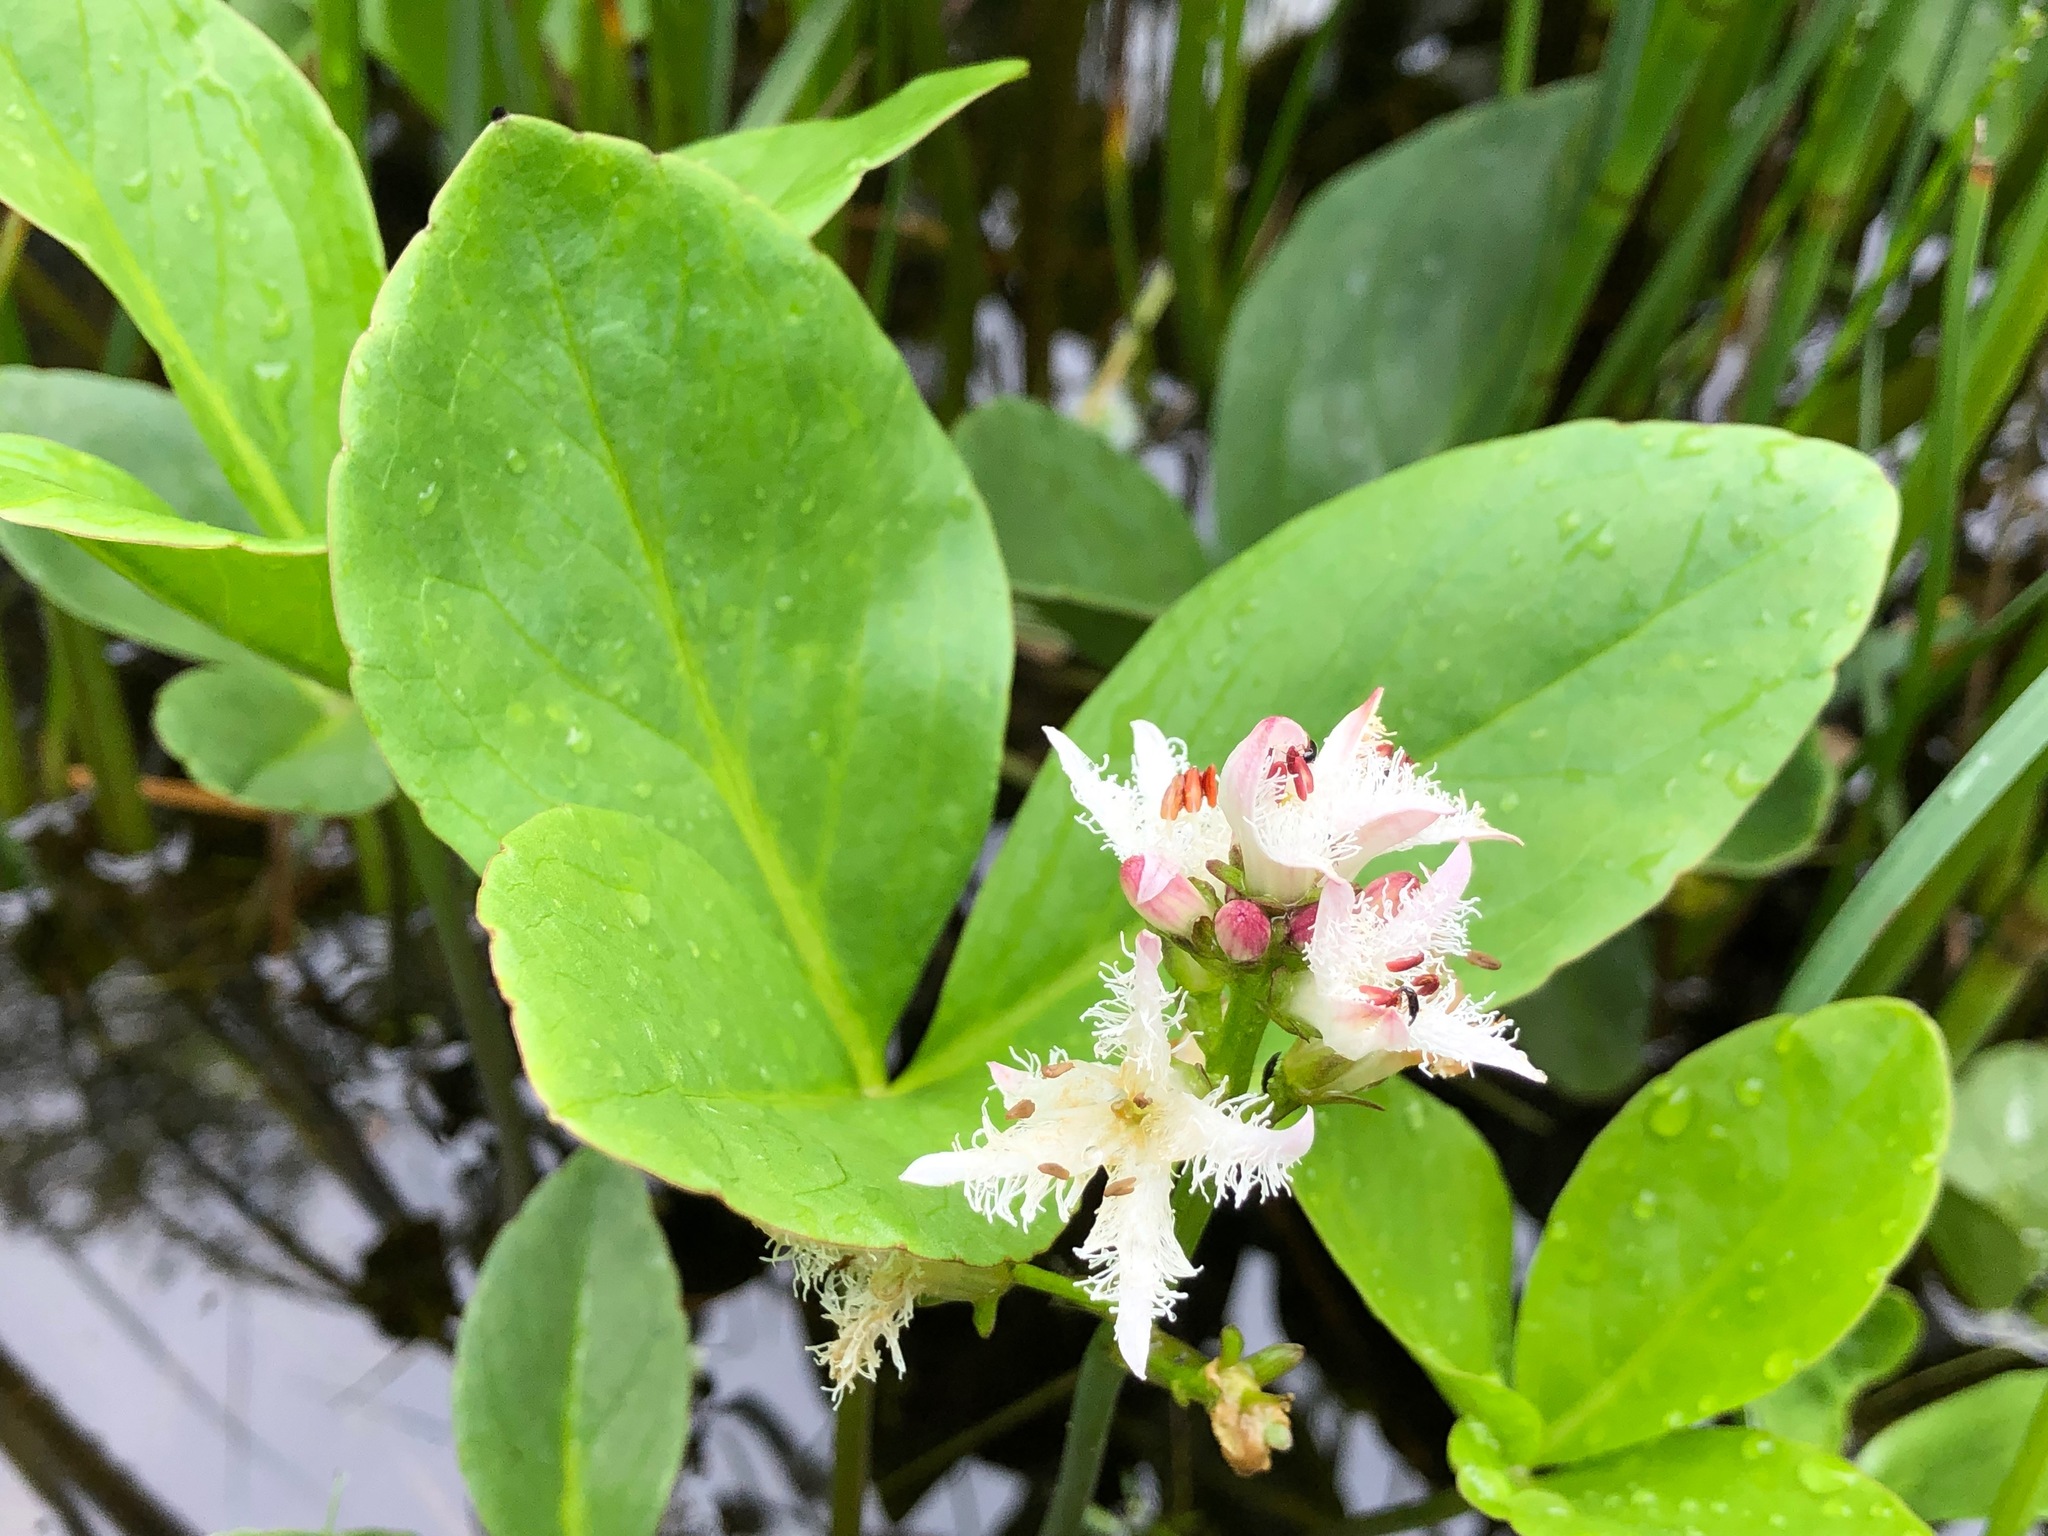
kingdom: Plantae
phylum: Tracheophyta
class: Magnoliopsida
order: Asterales
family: Menyanthaceae
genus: Menyanthes
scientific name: Menyanthes trifoliata
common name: Bogbean
